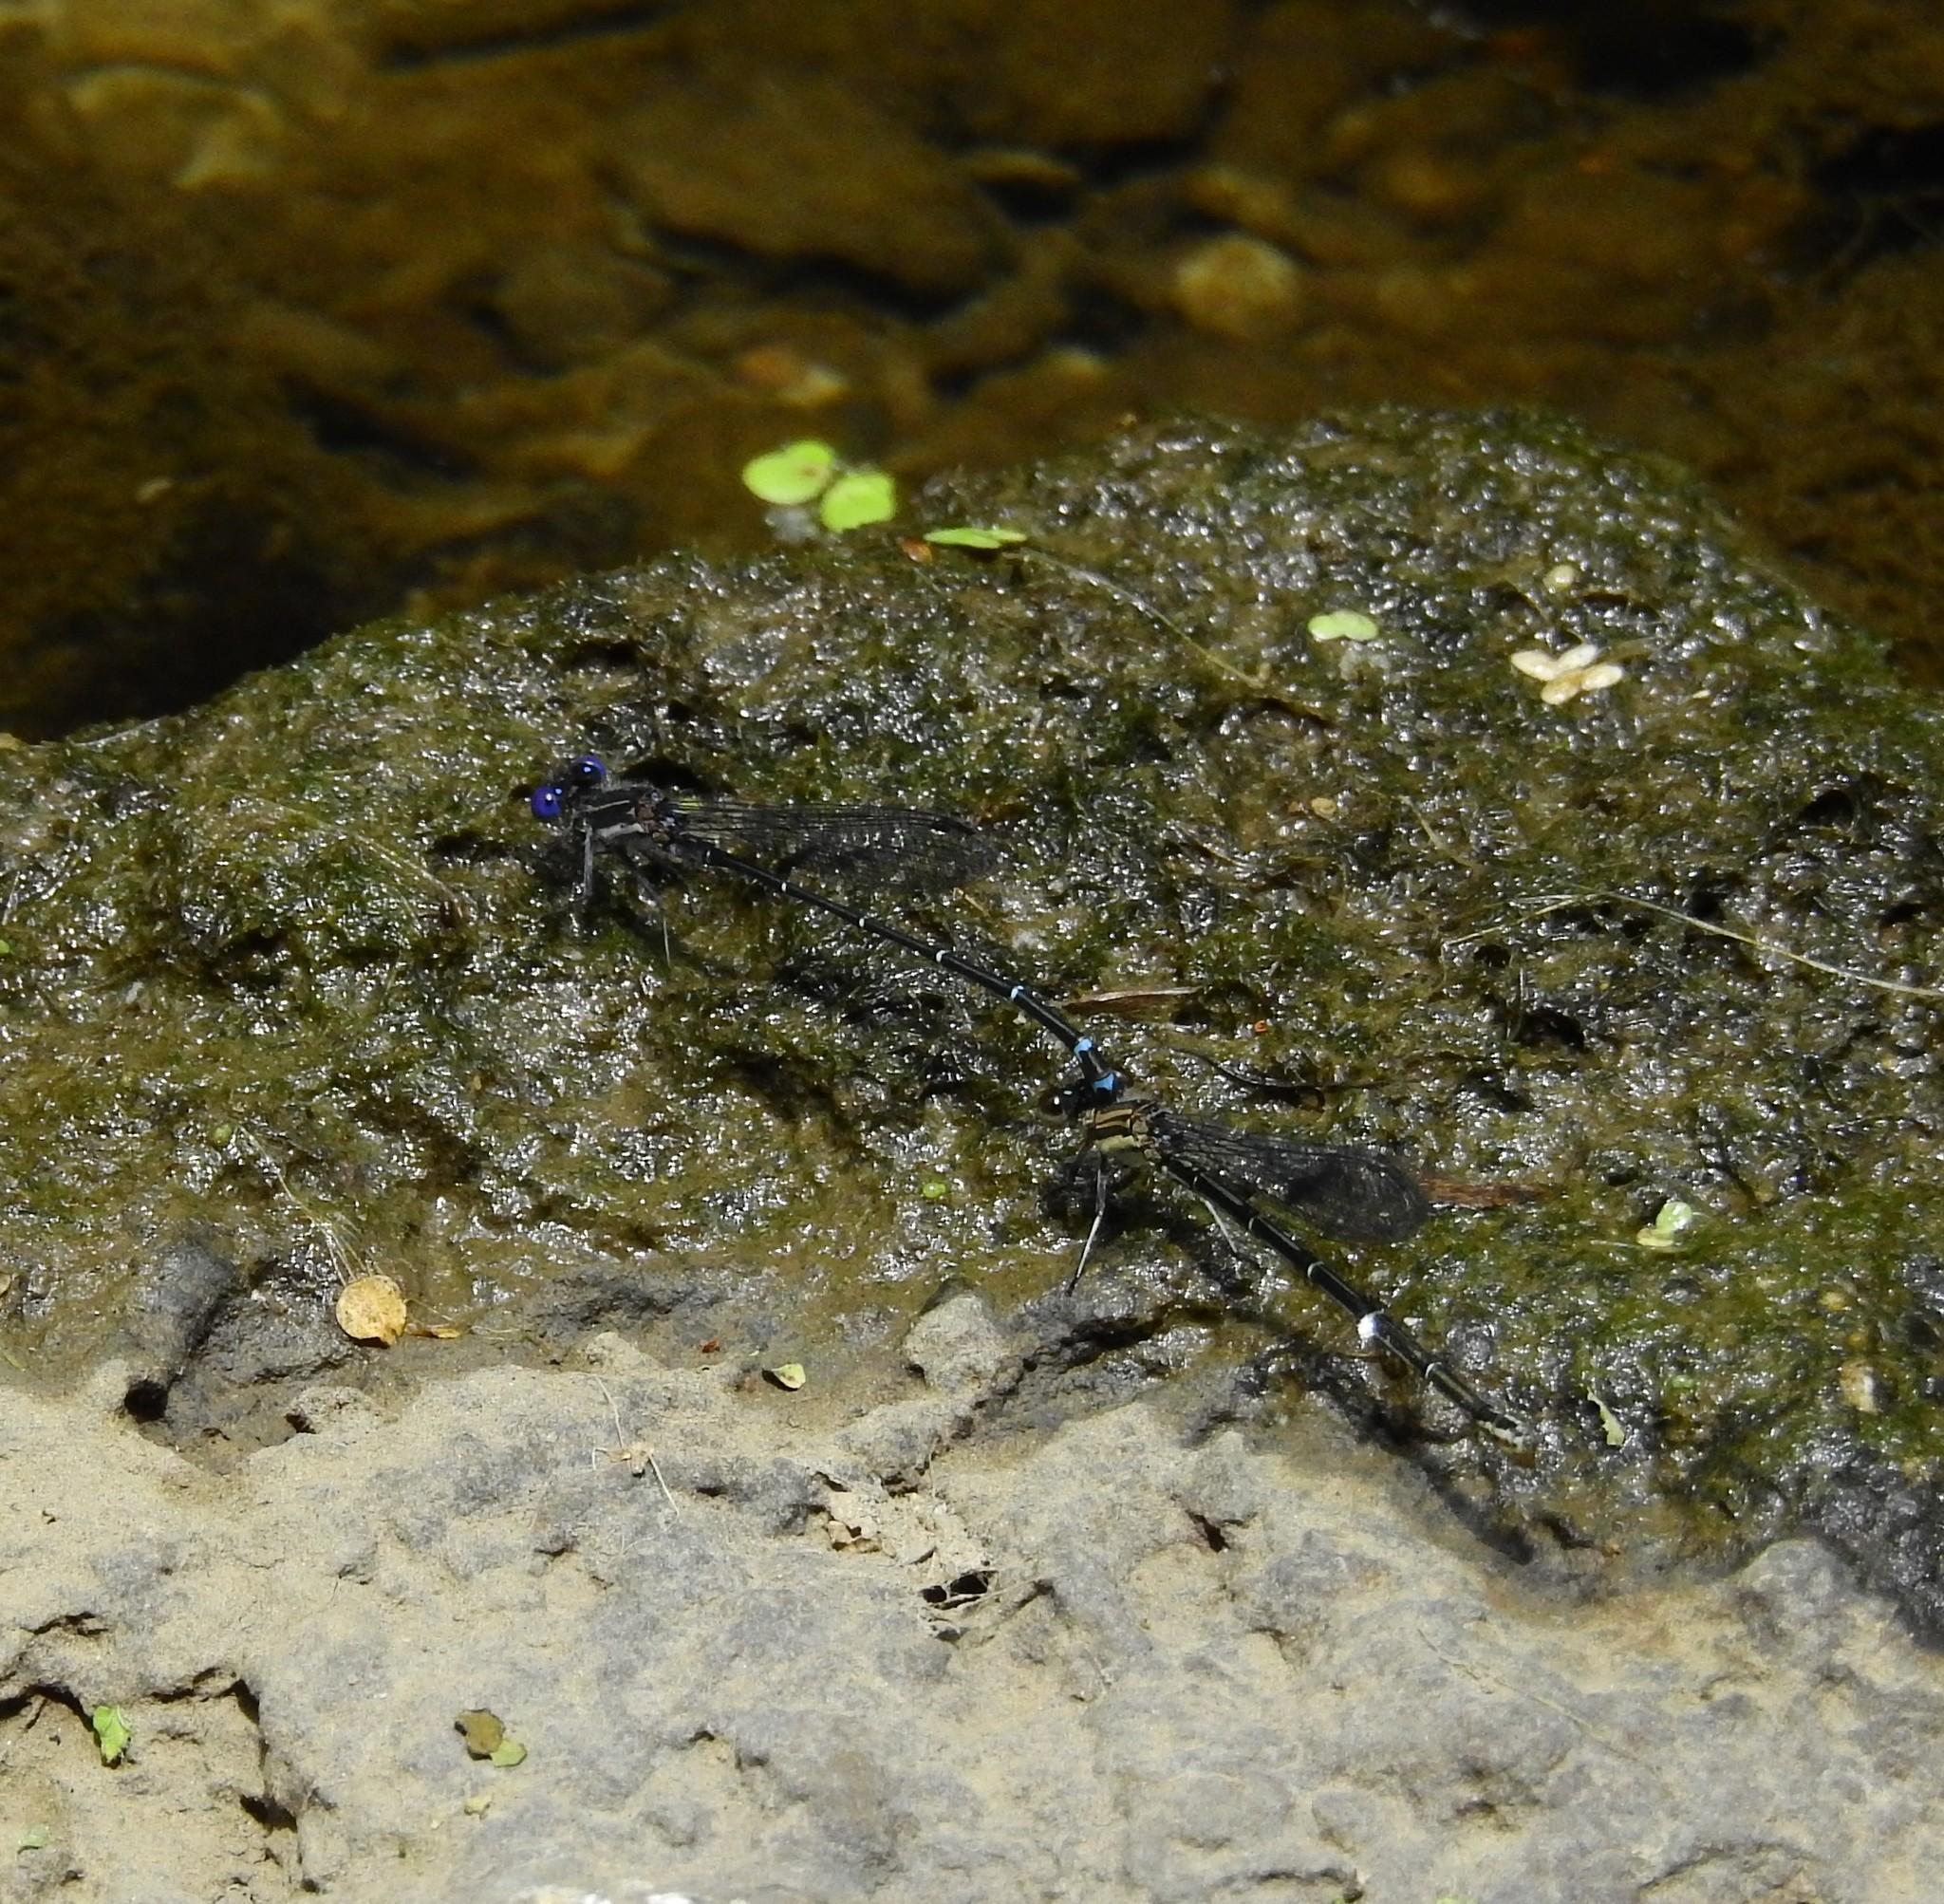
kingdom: Animalia
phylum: Arthropoda
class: Insecta
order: Odonata
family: Coenagrionidae
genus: Argia
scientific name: Argia translata
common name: Dusky dancer
